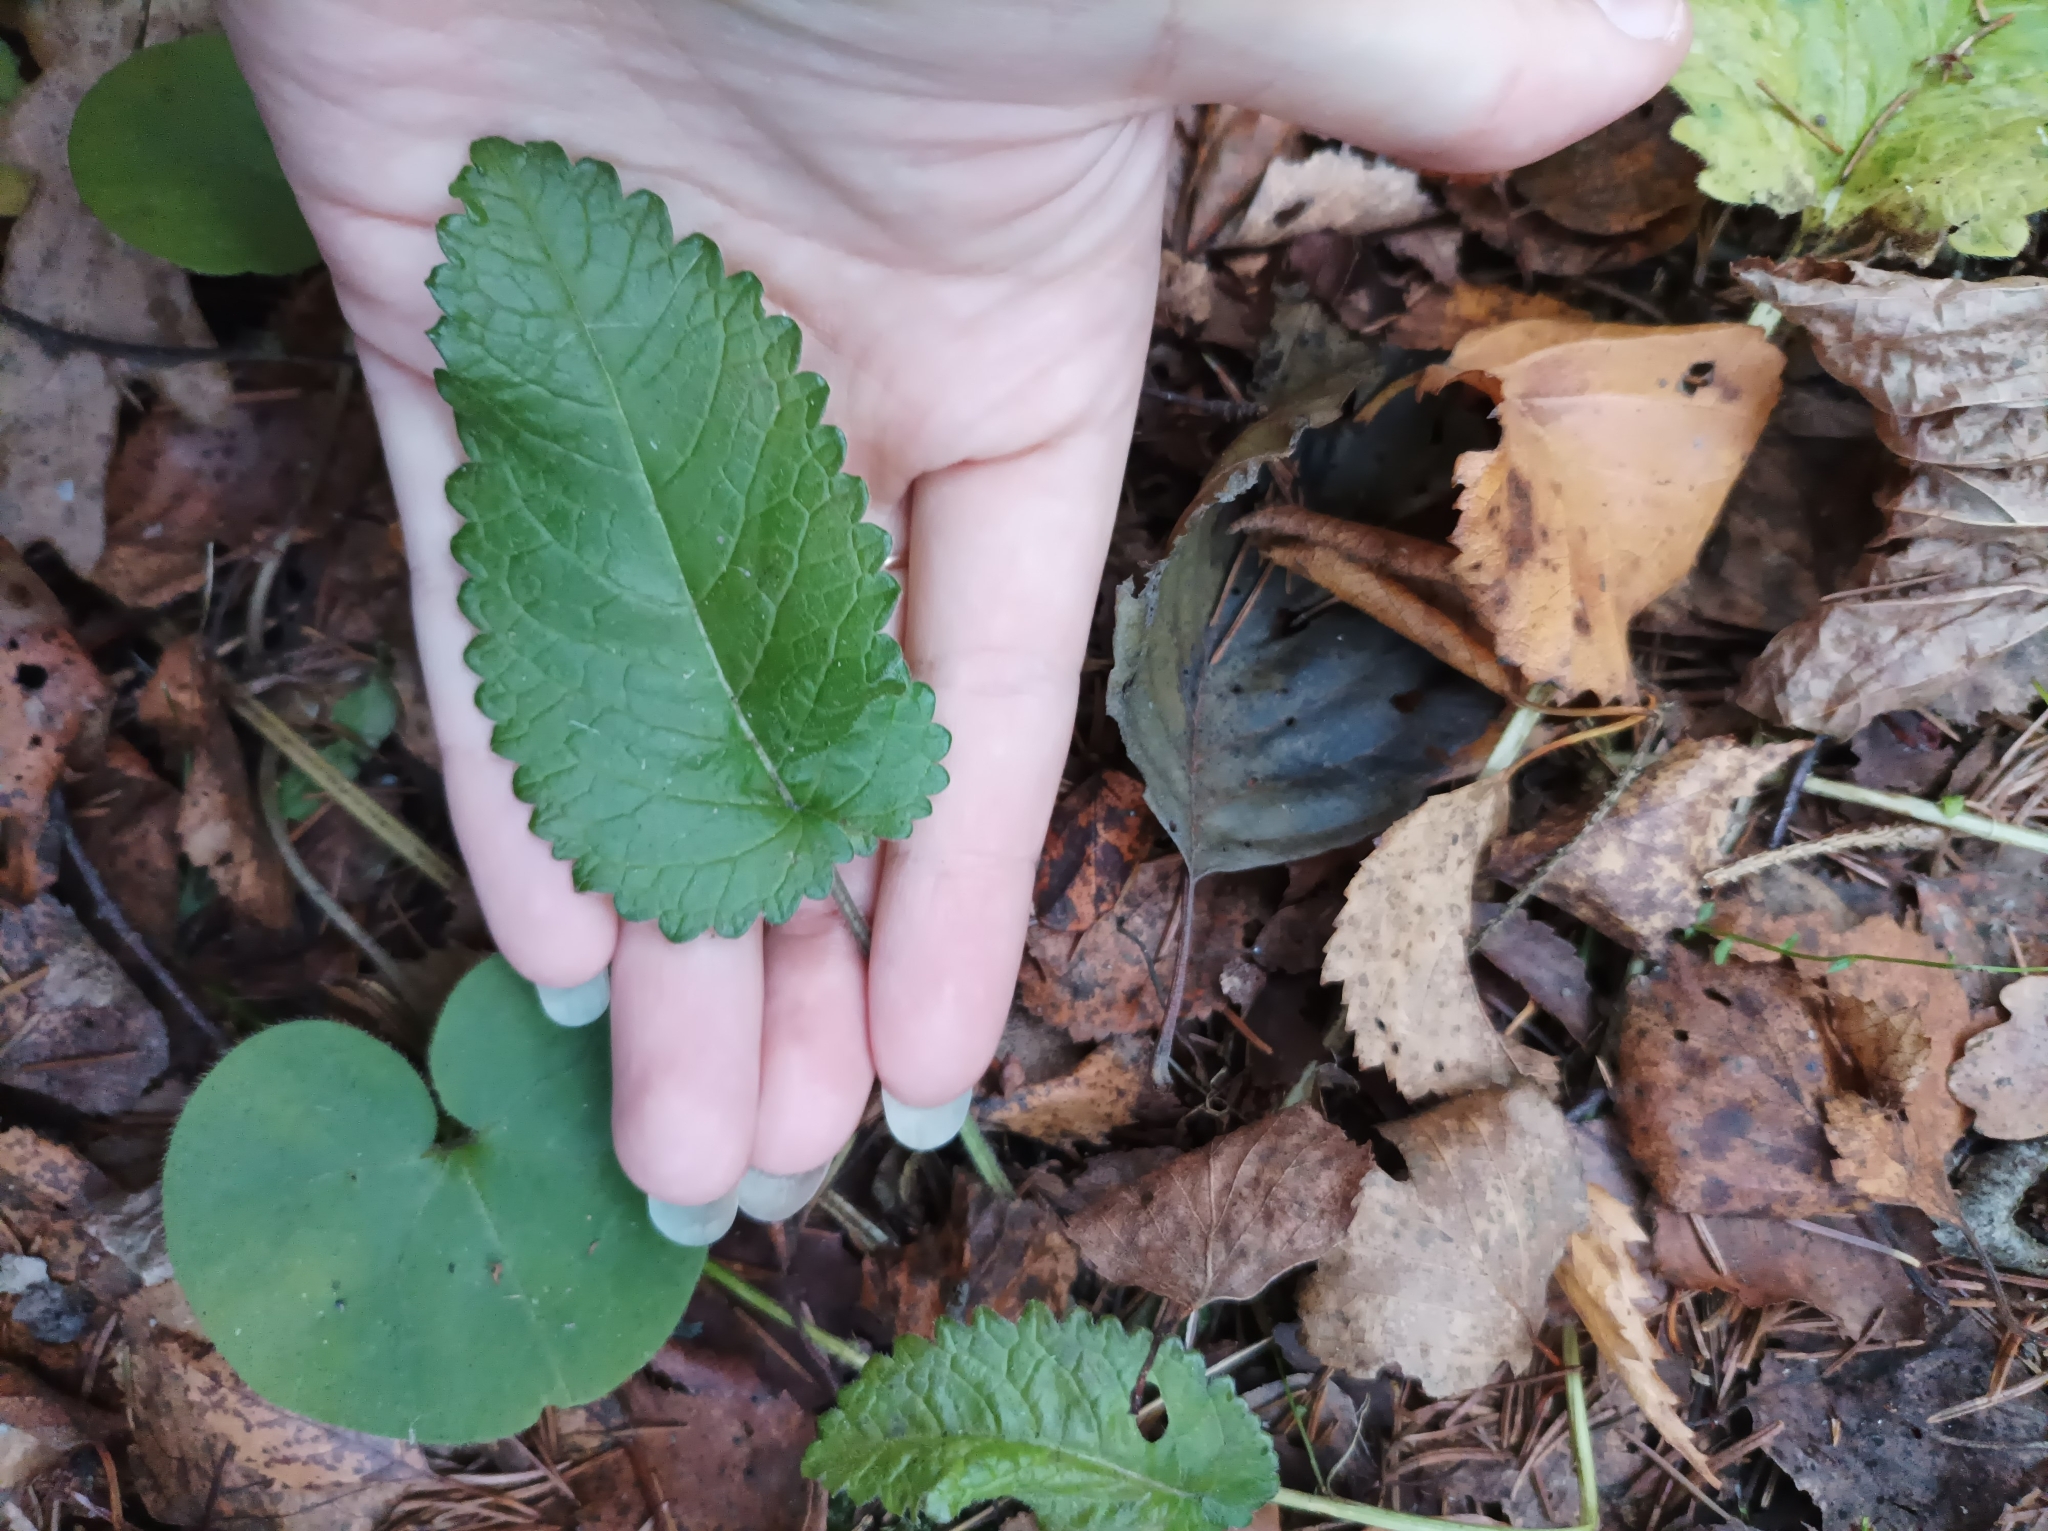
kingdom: Plantae
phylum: Tracheophyta
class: Magnoliopsida
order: Lamiales
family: Lamiaceae
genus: Betonica
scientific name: Betonica officinalis
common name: Bishop's-wort
